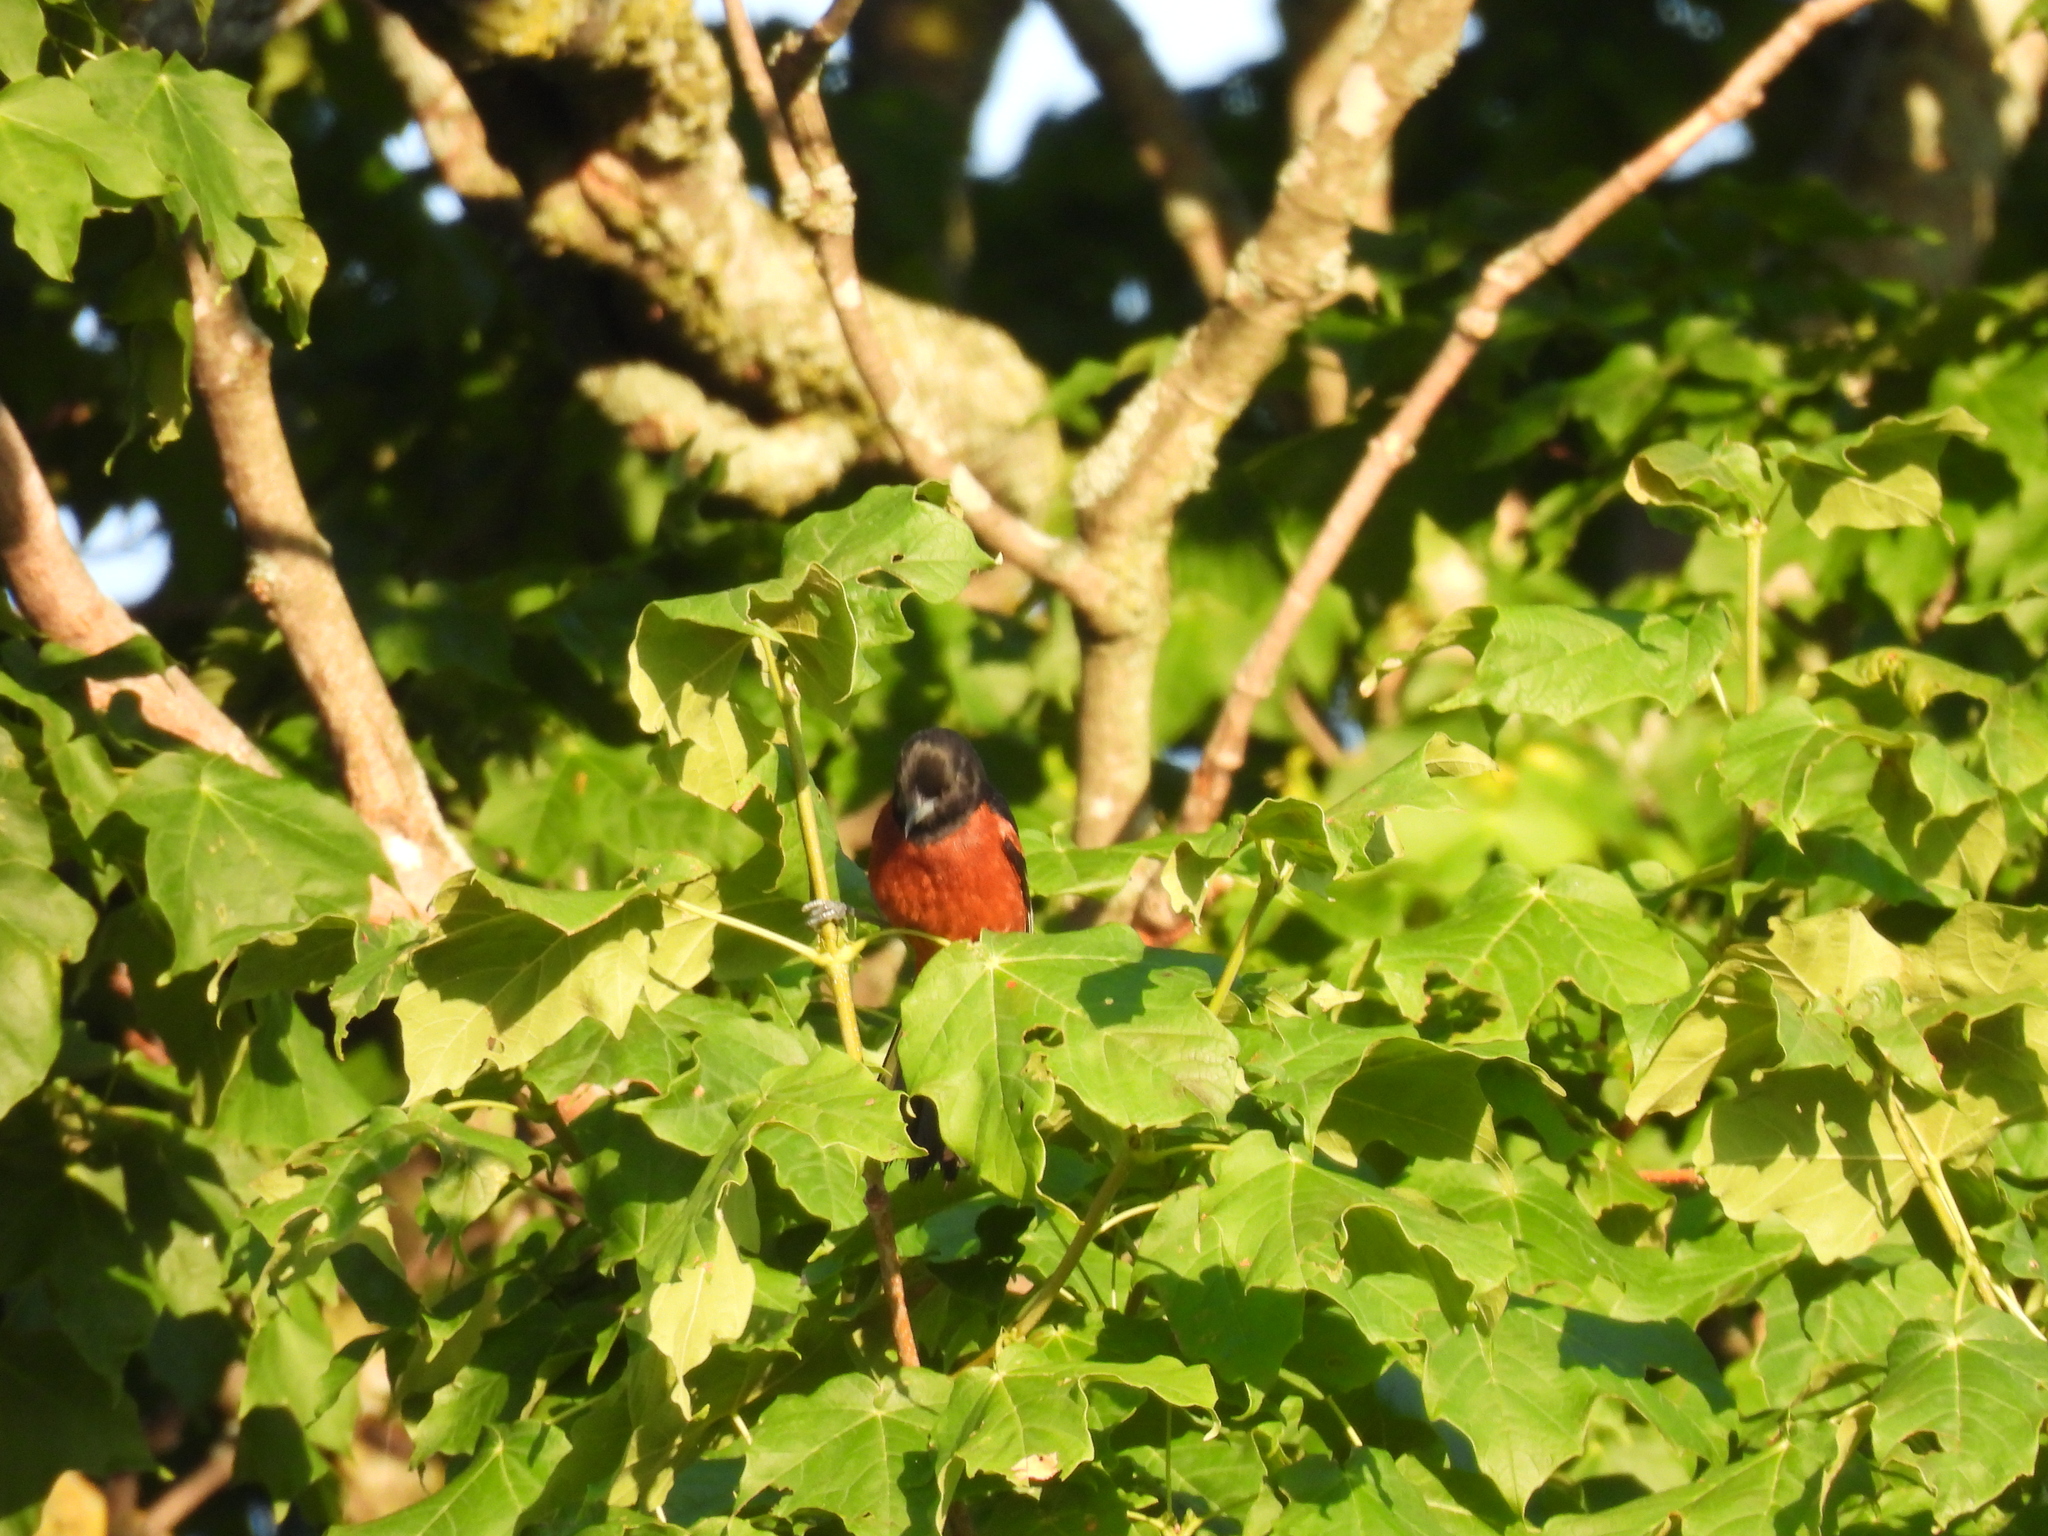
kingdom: Animalia
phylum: Chordata
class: Aves
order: Passeriformes
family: Icteridae
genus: Icterus
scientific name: Icterus spurius
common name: Orchard oriole
